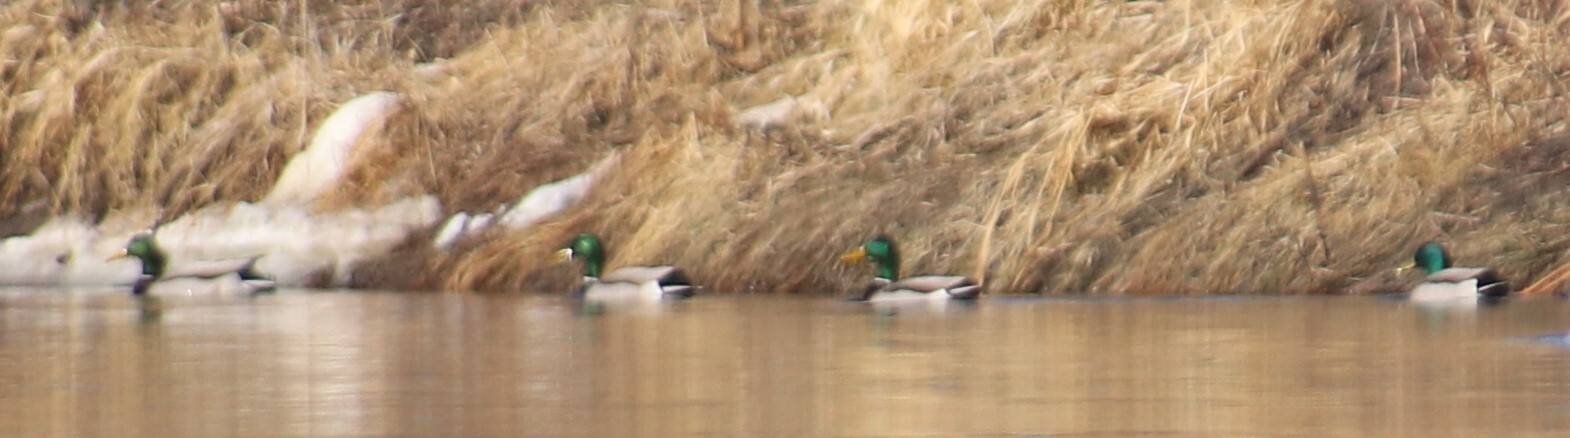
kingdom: Animalia
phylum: Chordata
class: Aves
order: Anseriformes
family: Anatidae
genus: Anas
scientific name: Anas platyrhynchos
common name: Mallard
